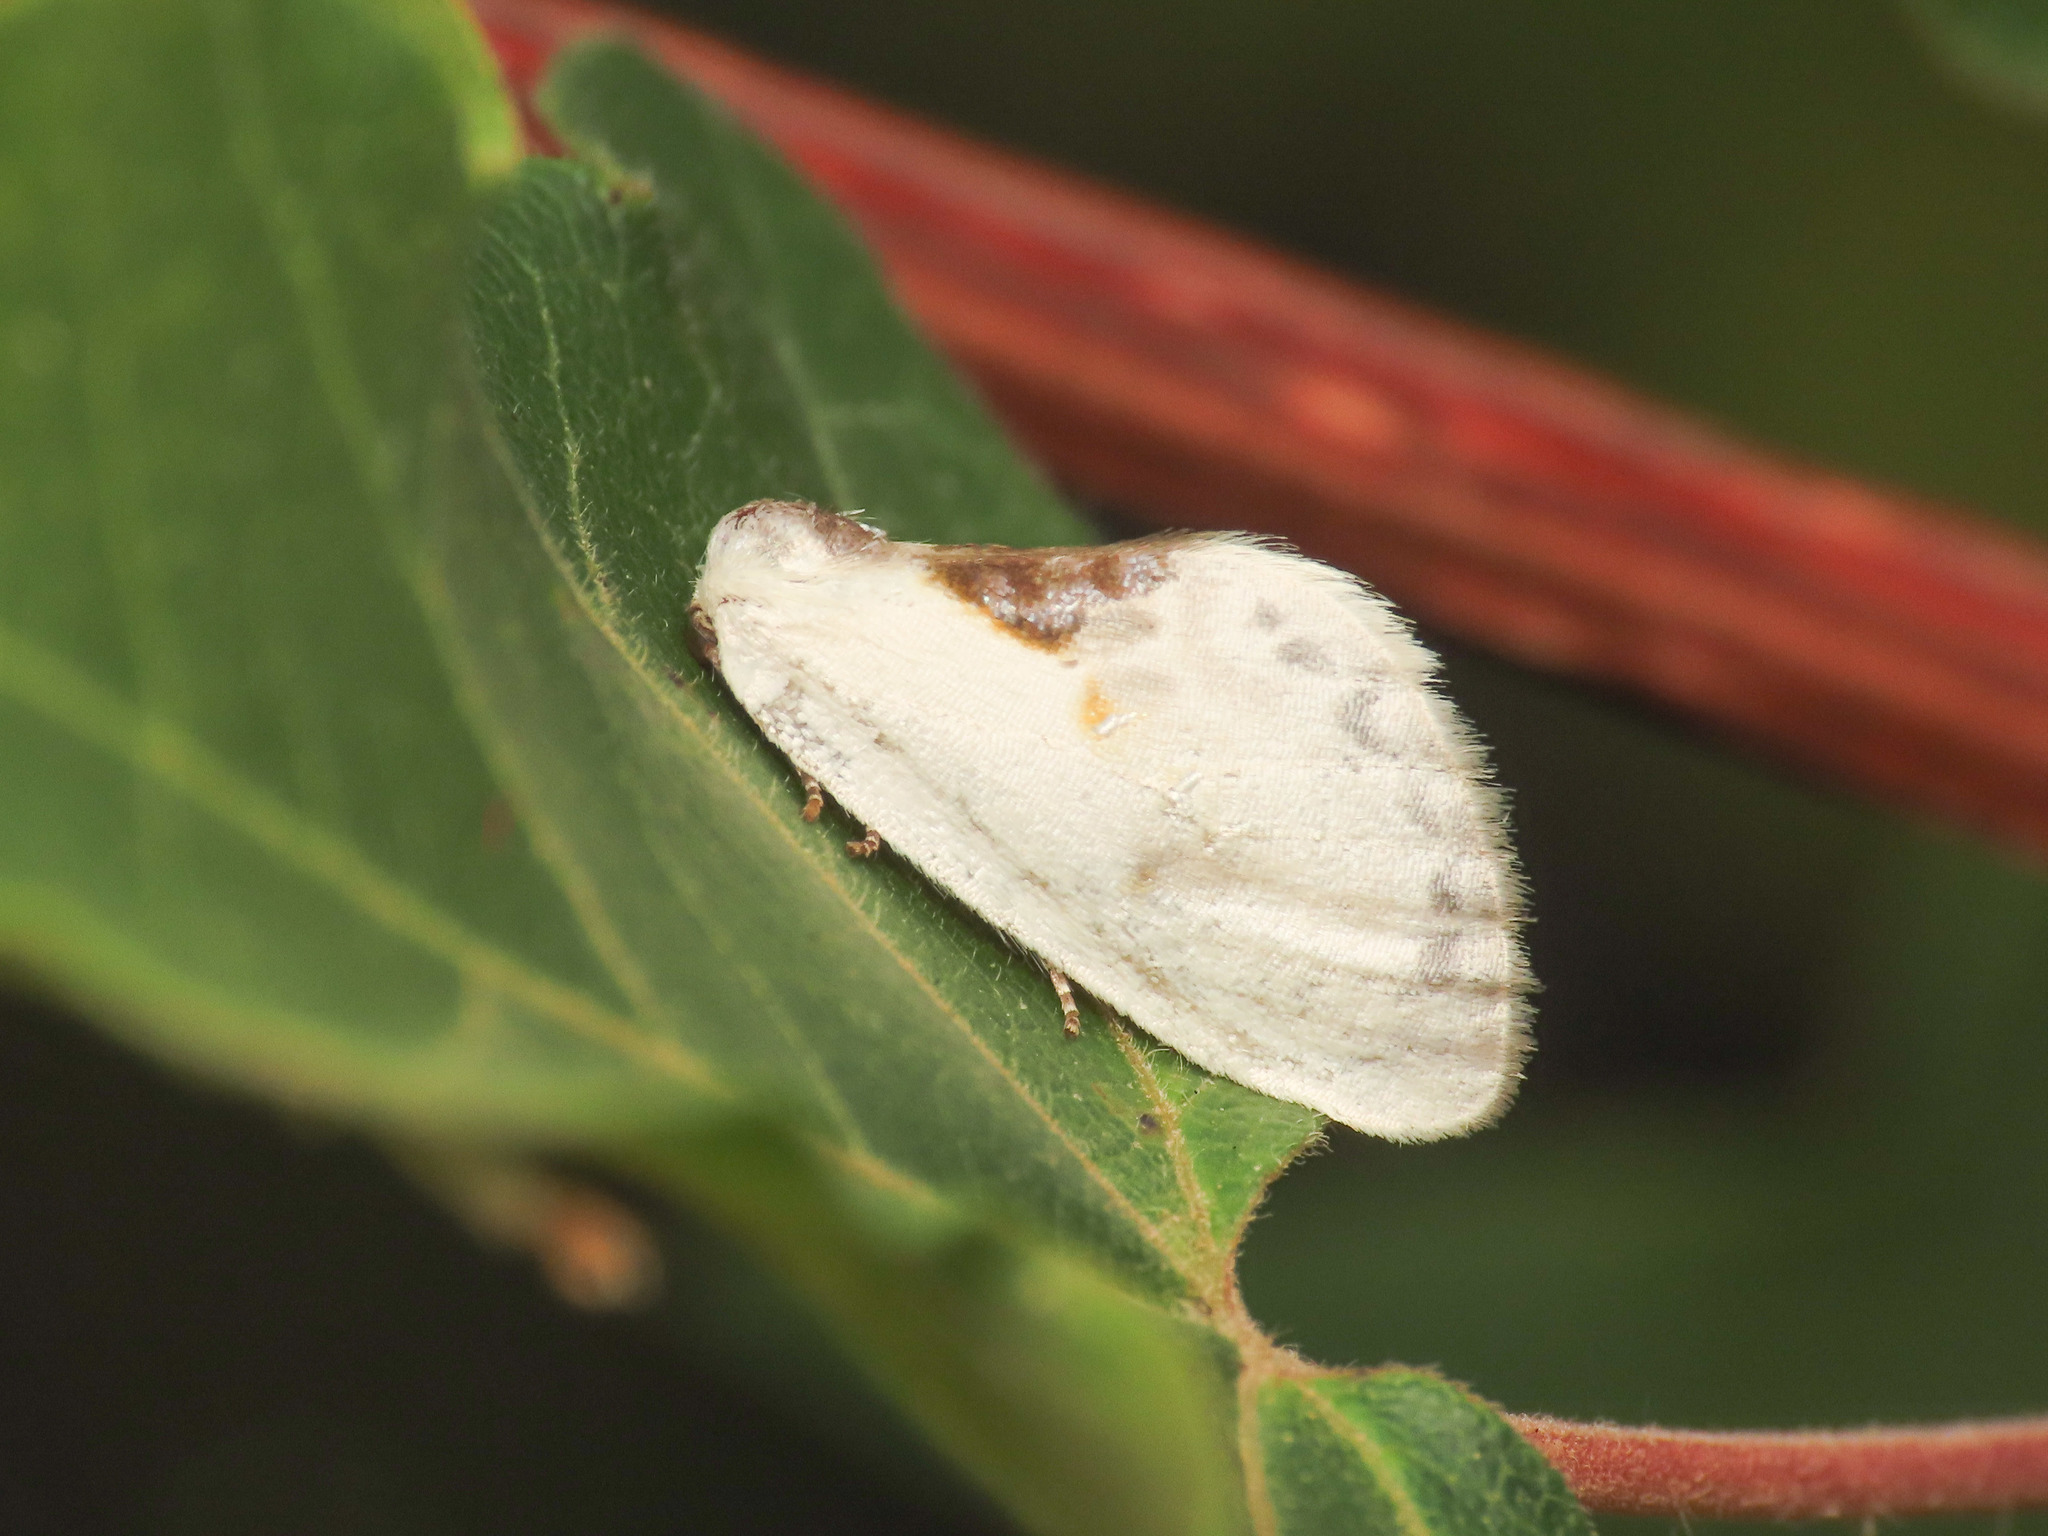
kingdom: Animalia
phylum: Arthropoda
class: Insecta
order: Lepidoptera
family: Drepanidae
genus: Cilix
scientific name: Cilix glaucata
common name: Chinese character
